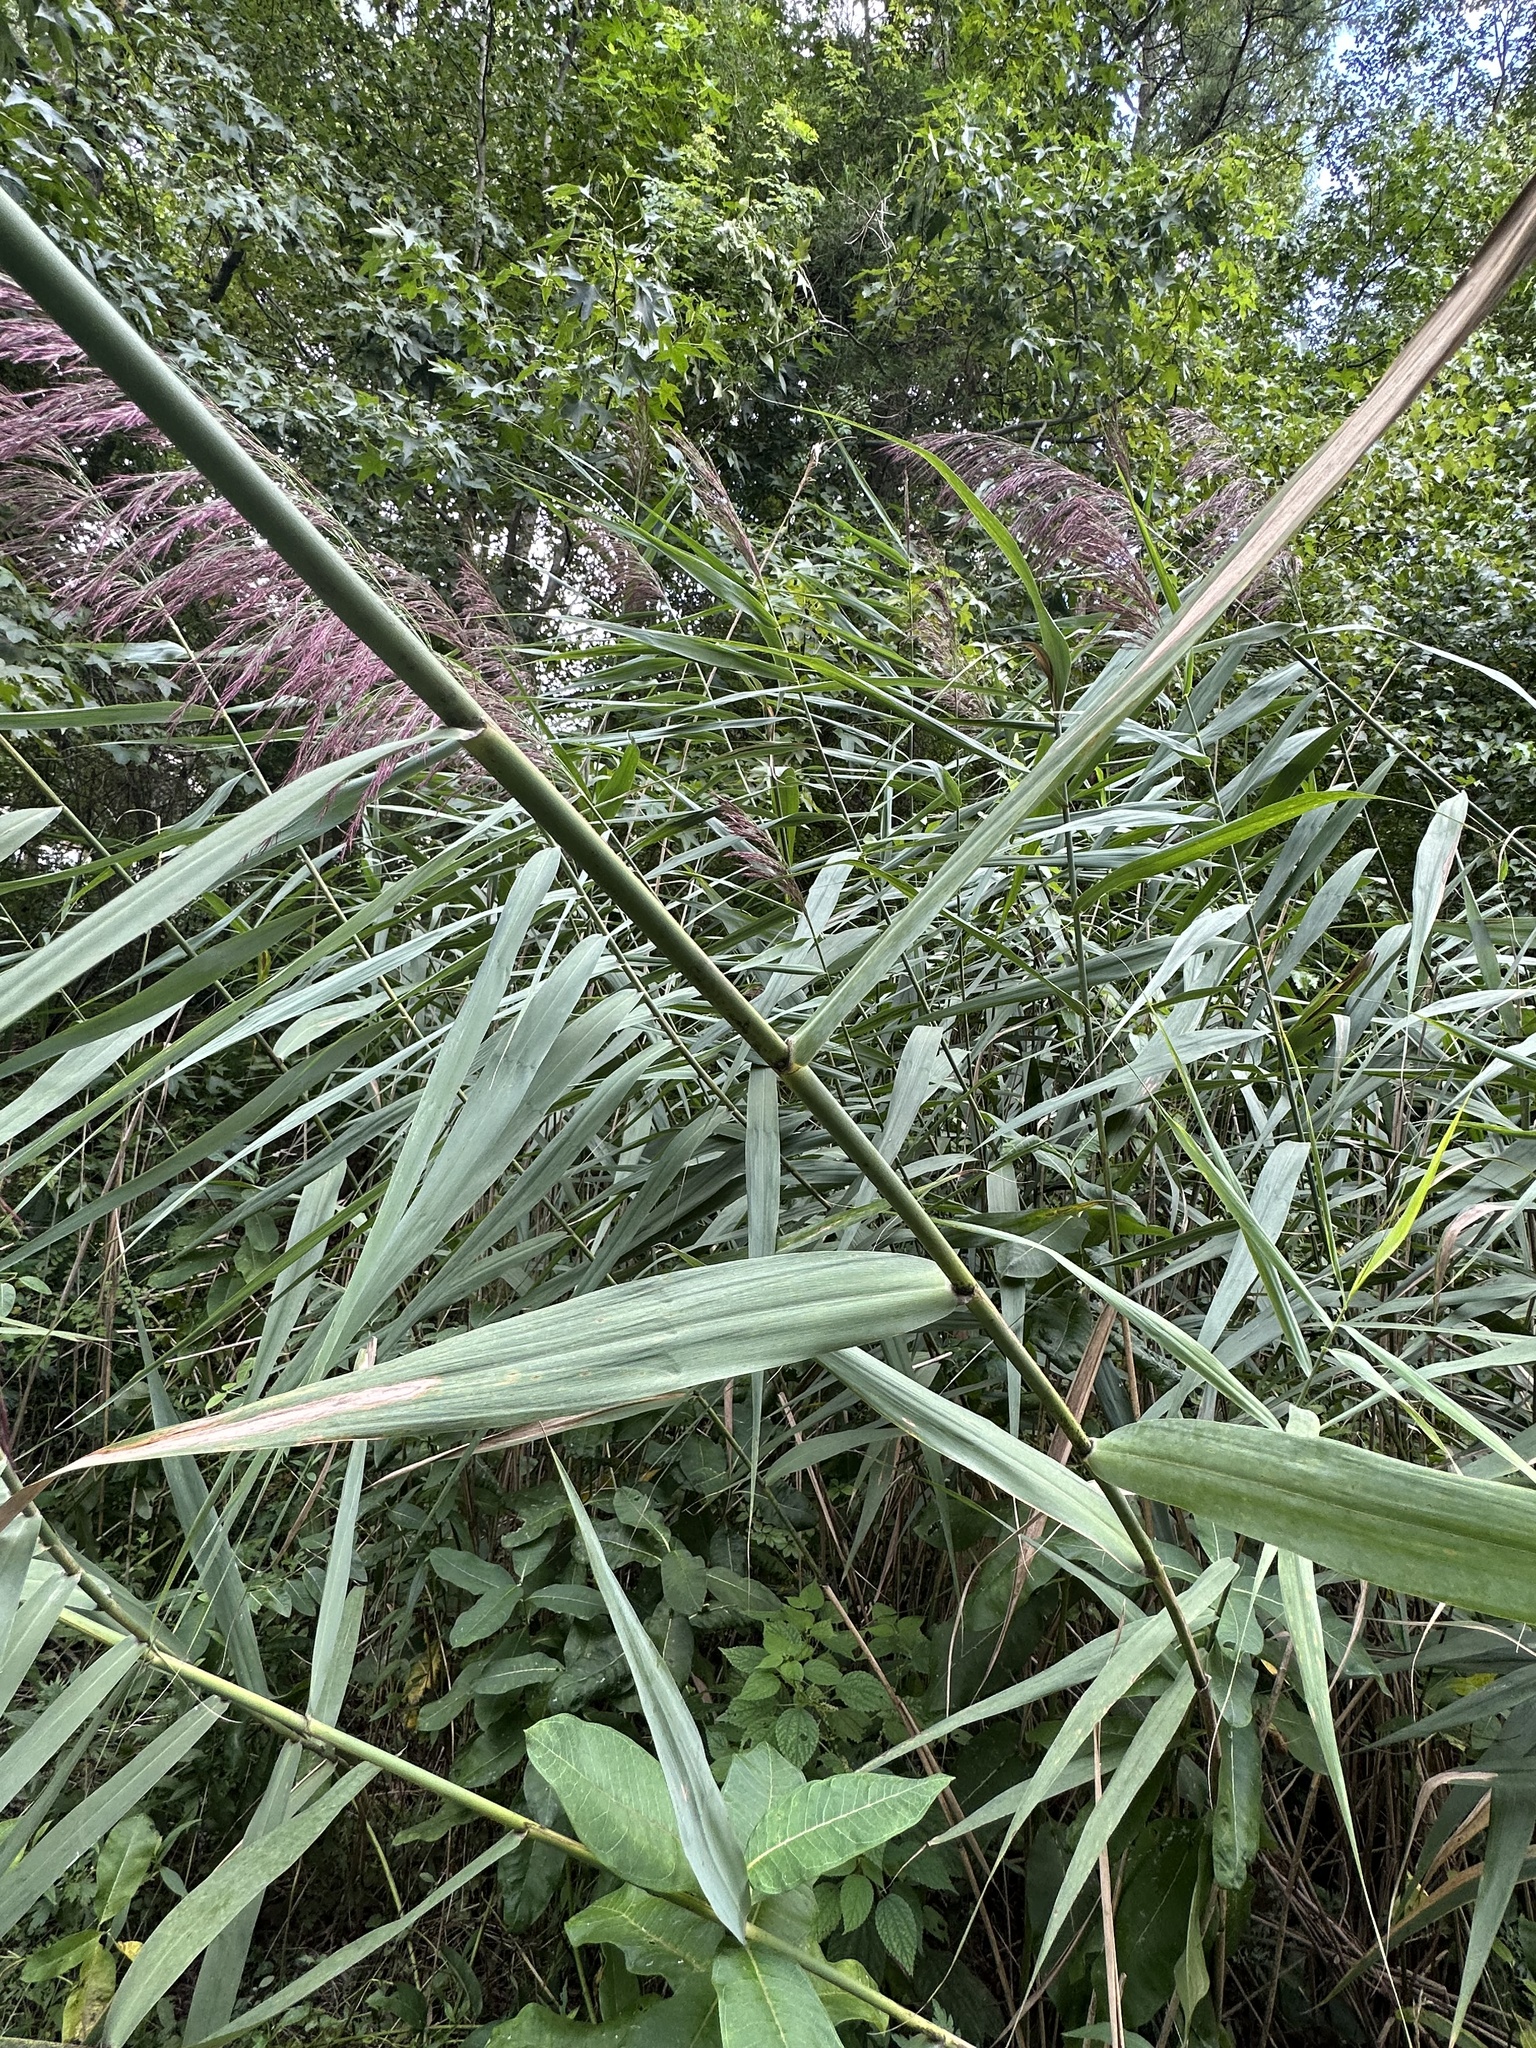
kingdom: Plantae
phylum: Tracheophyta
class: Liliopsida
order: Poales
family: Poaceae
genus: Phragmites
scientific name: Phragmites australis
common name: Common reed
